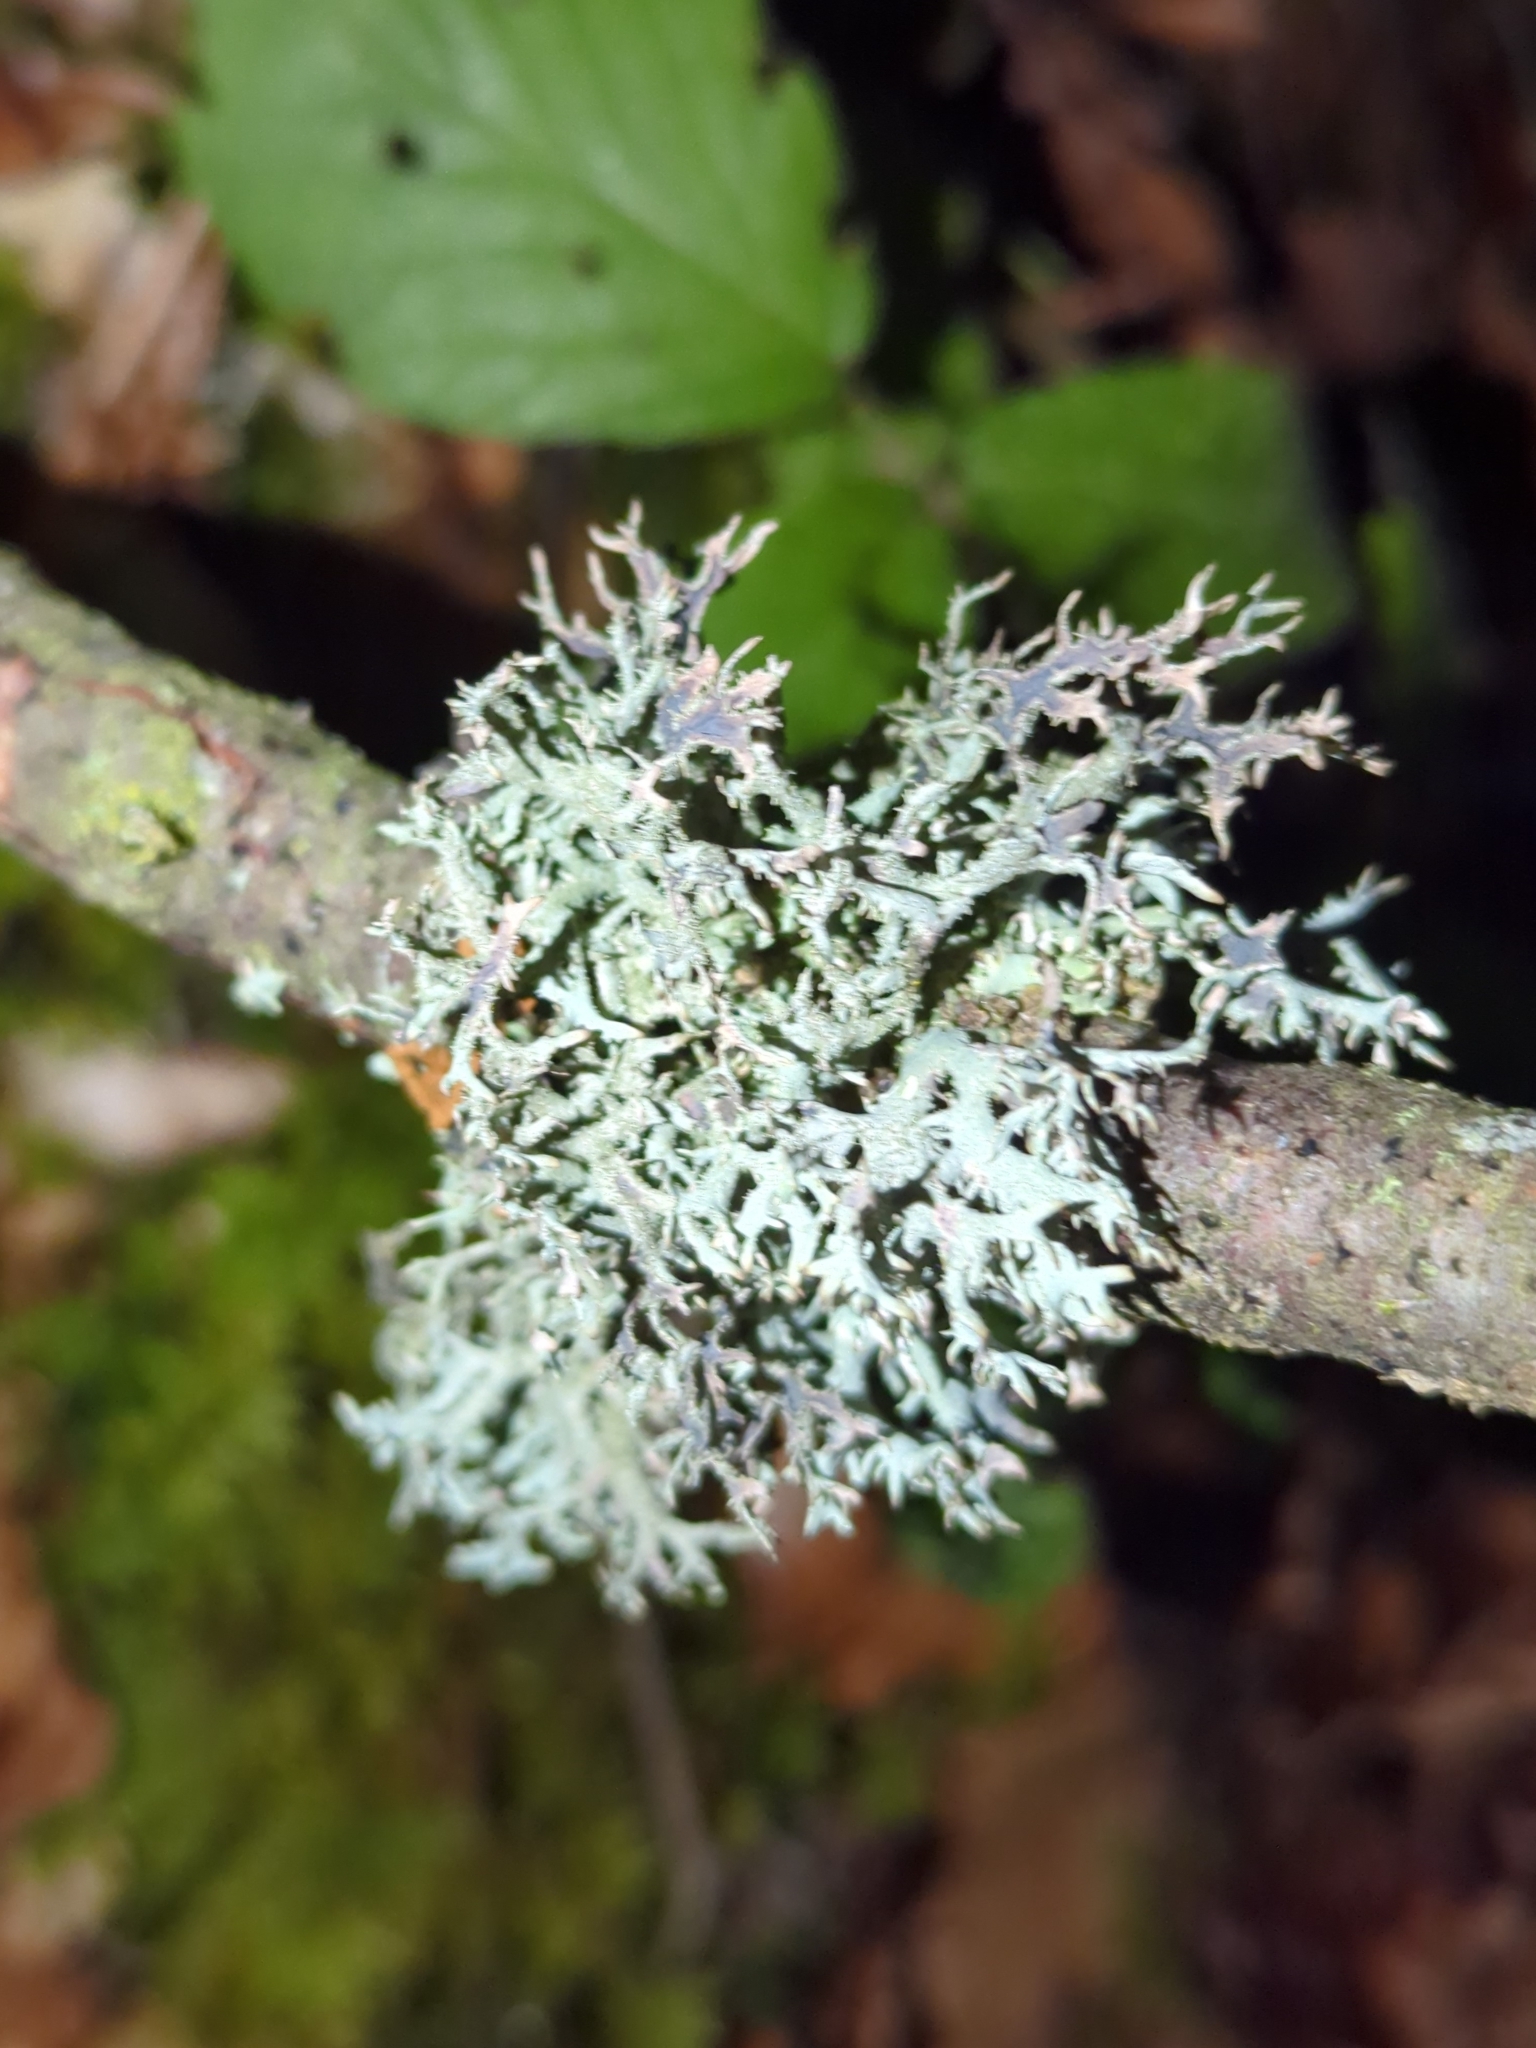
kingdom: Fungi
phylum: Ascomycota
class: Lecanoromycetes
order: Lecanorales
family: Parmeliaceae
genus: Pseudevernia
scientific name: Pseudevernia furfuracea
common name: Tree moss
